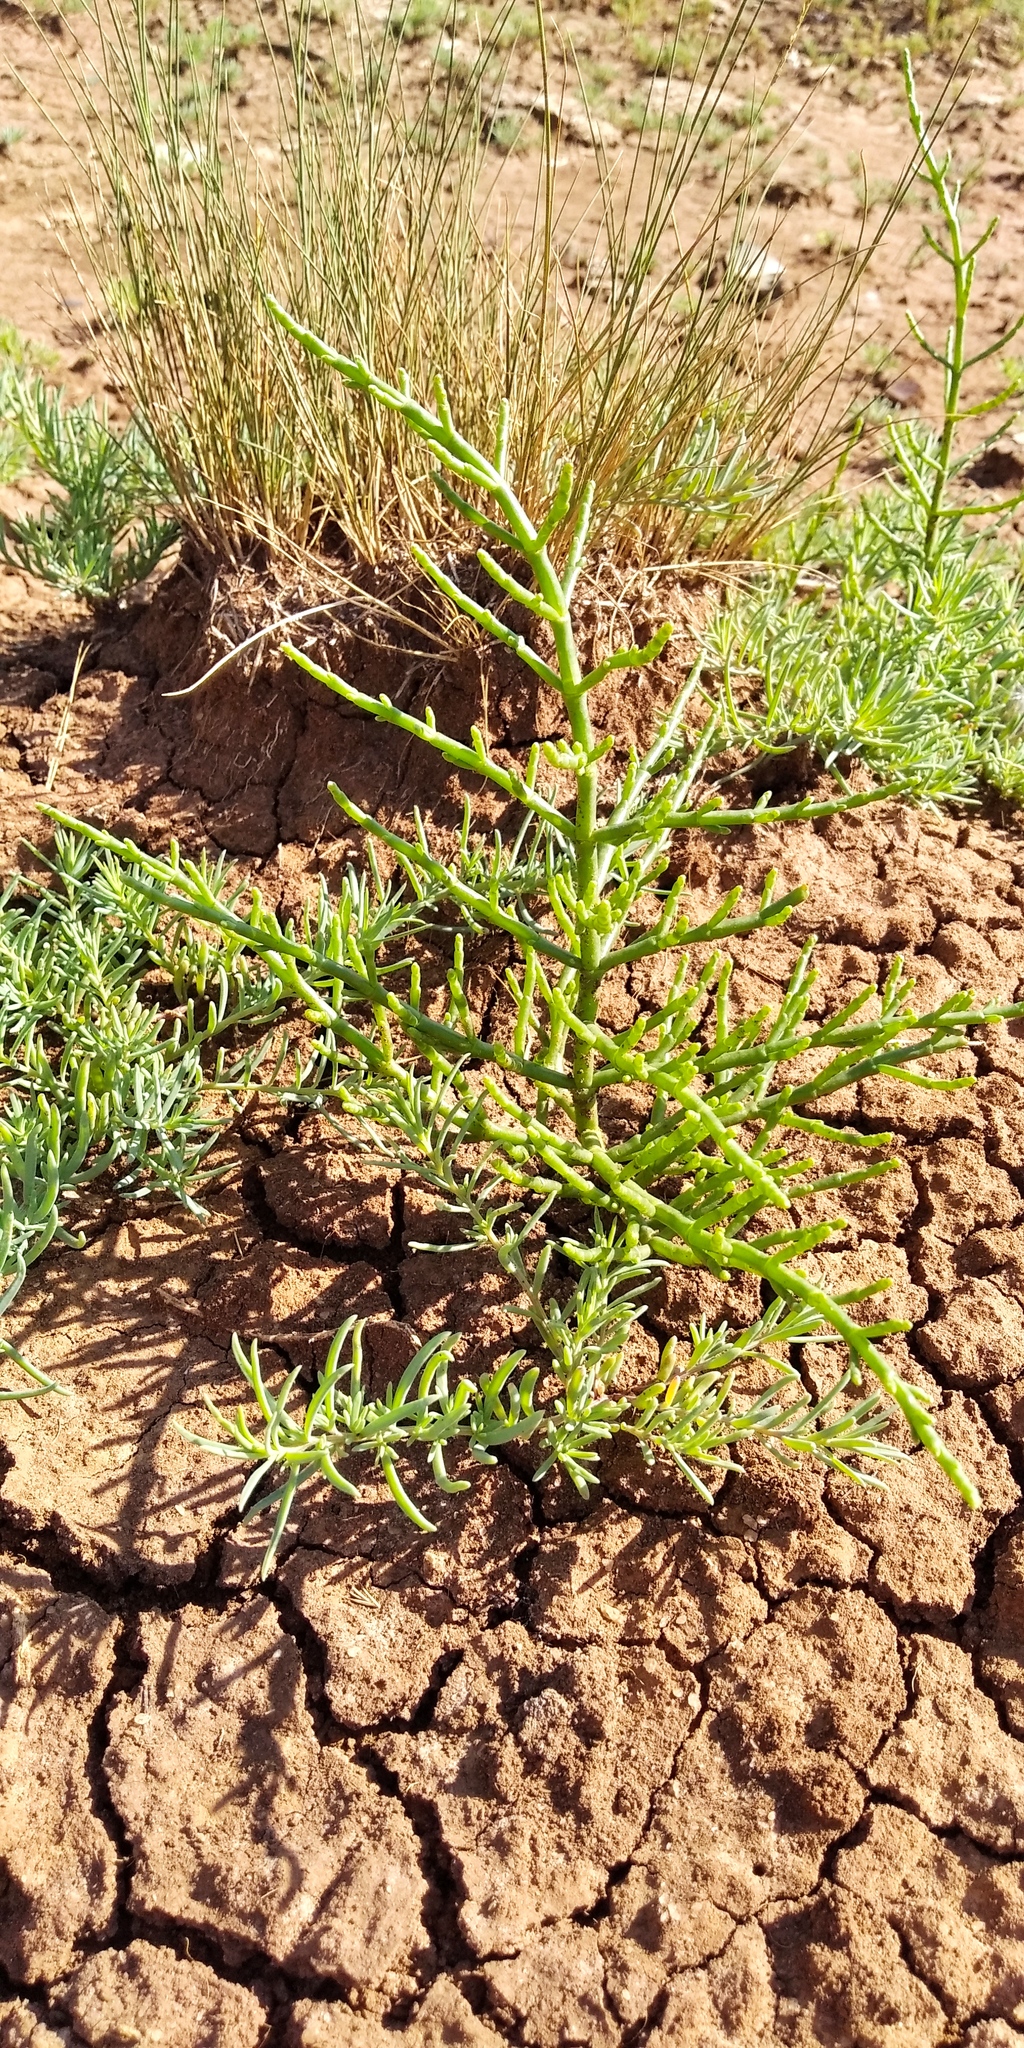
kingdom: Plantae
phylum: Tracheophyta
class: Magnoliopsida
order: Caryophyllales
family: Amaranthaceae
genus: Salicornia
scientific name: Salicornia perennans
